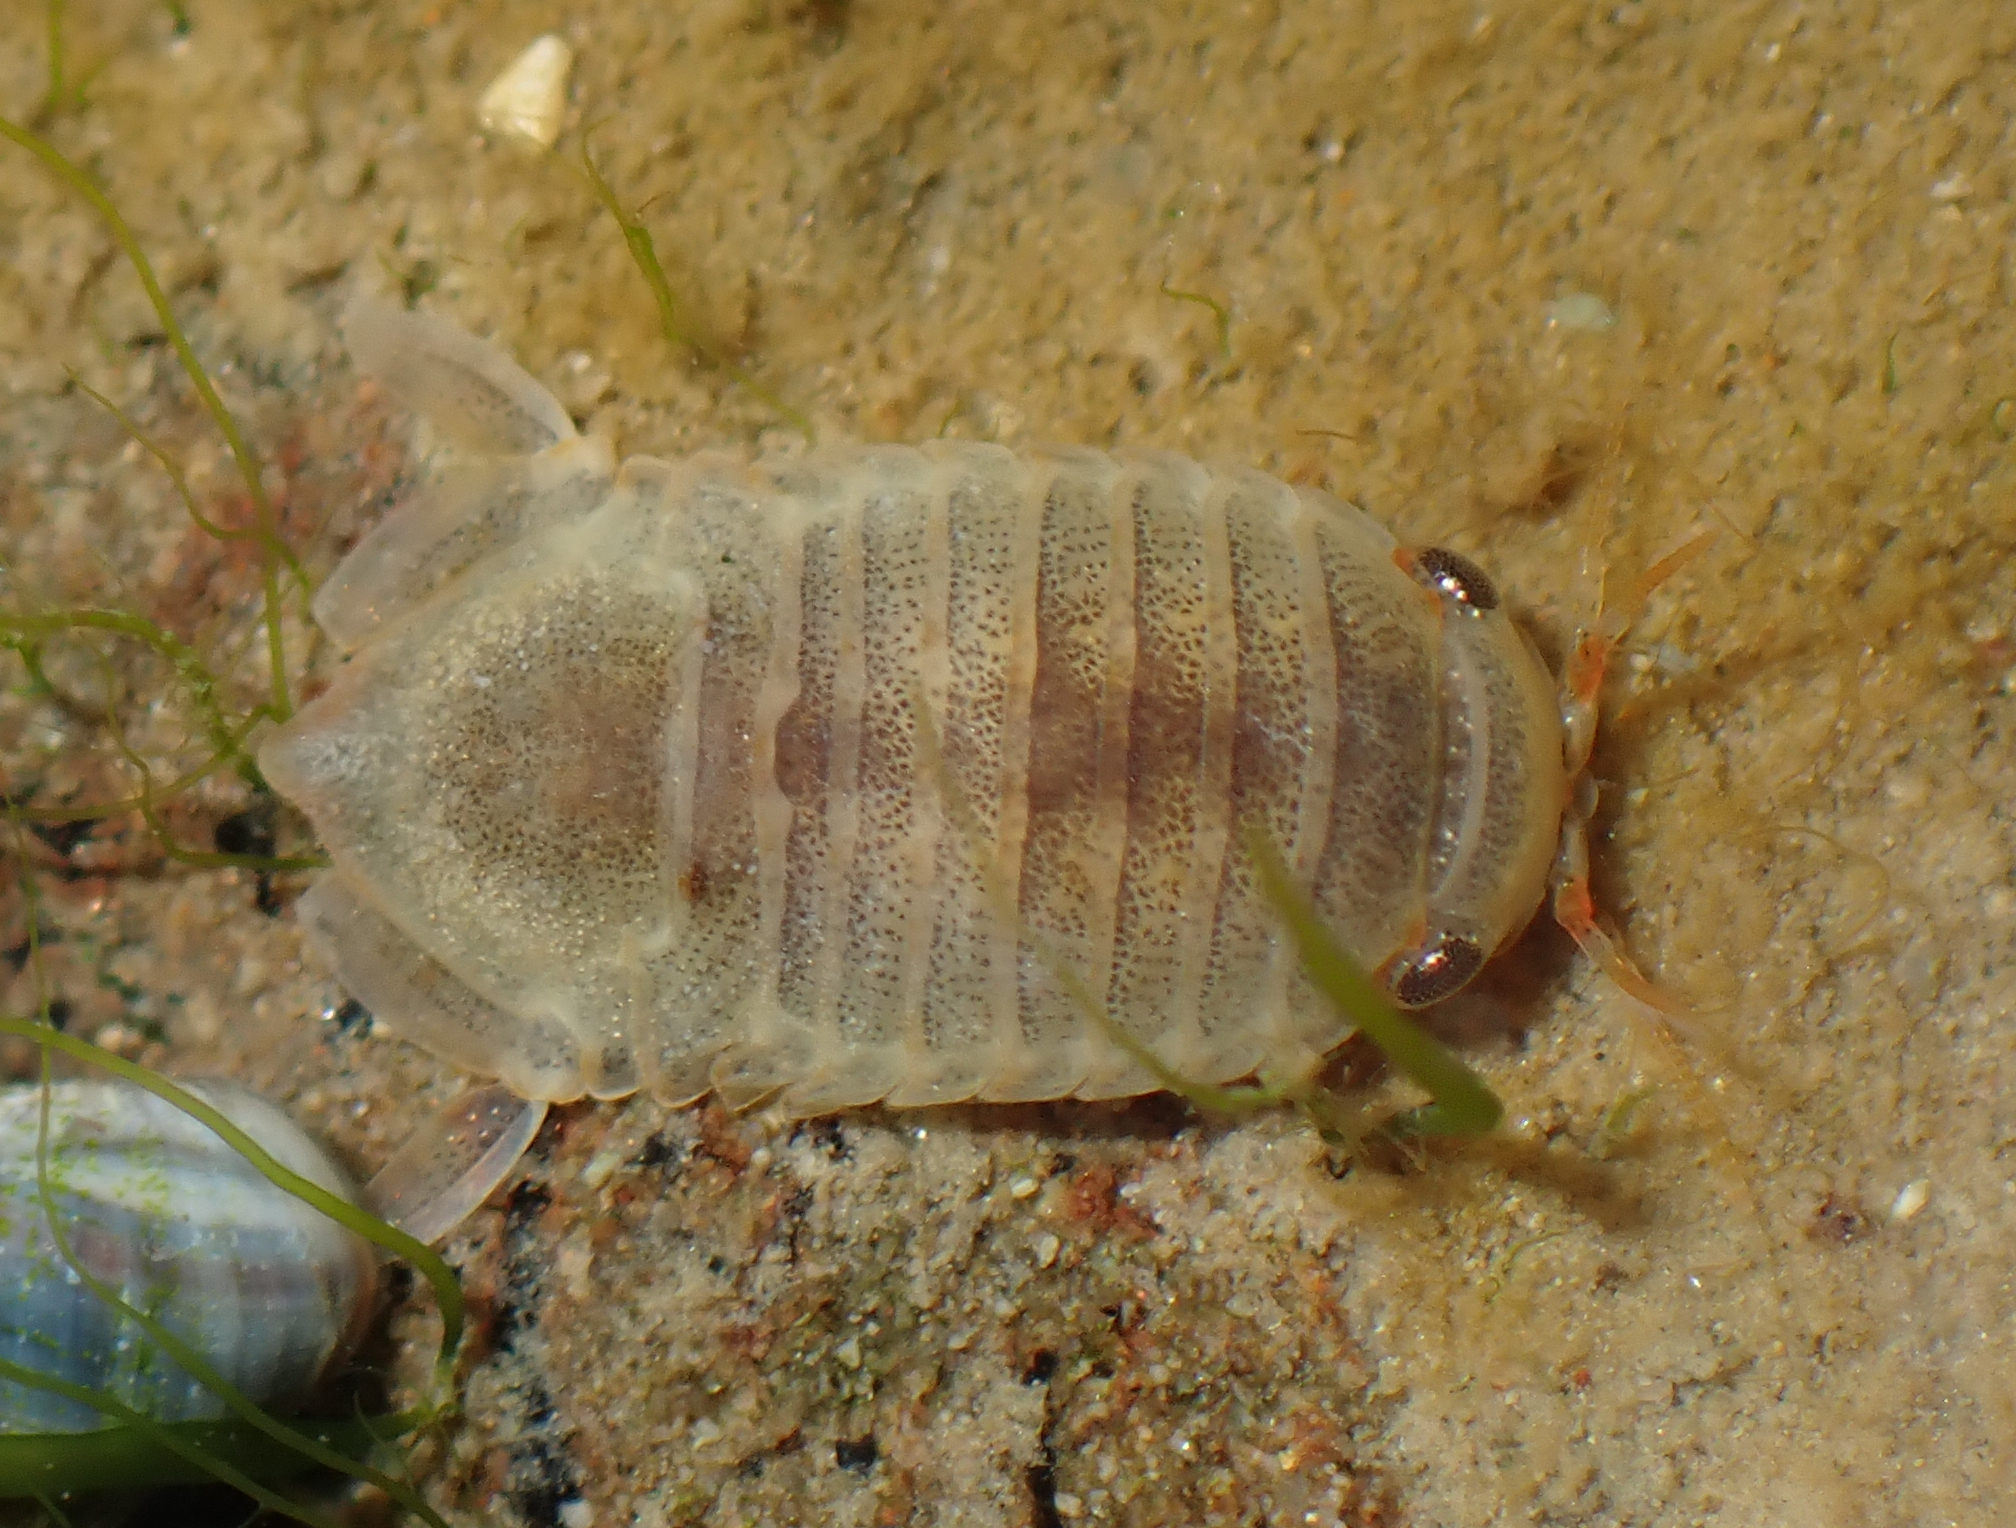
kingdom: Animalia
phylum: Arthropoda
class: Malacostraca
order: Isopoda
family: Sphaeromatidae
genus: Isocladus
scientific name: Isocladus armatus
